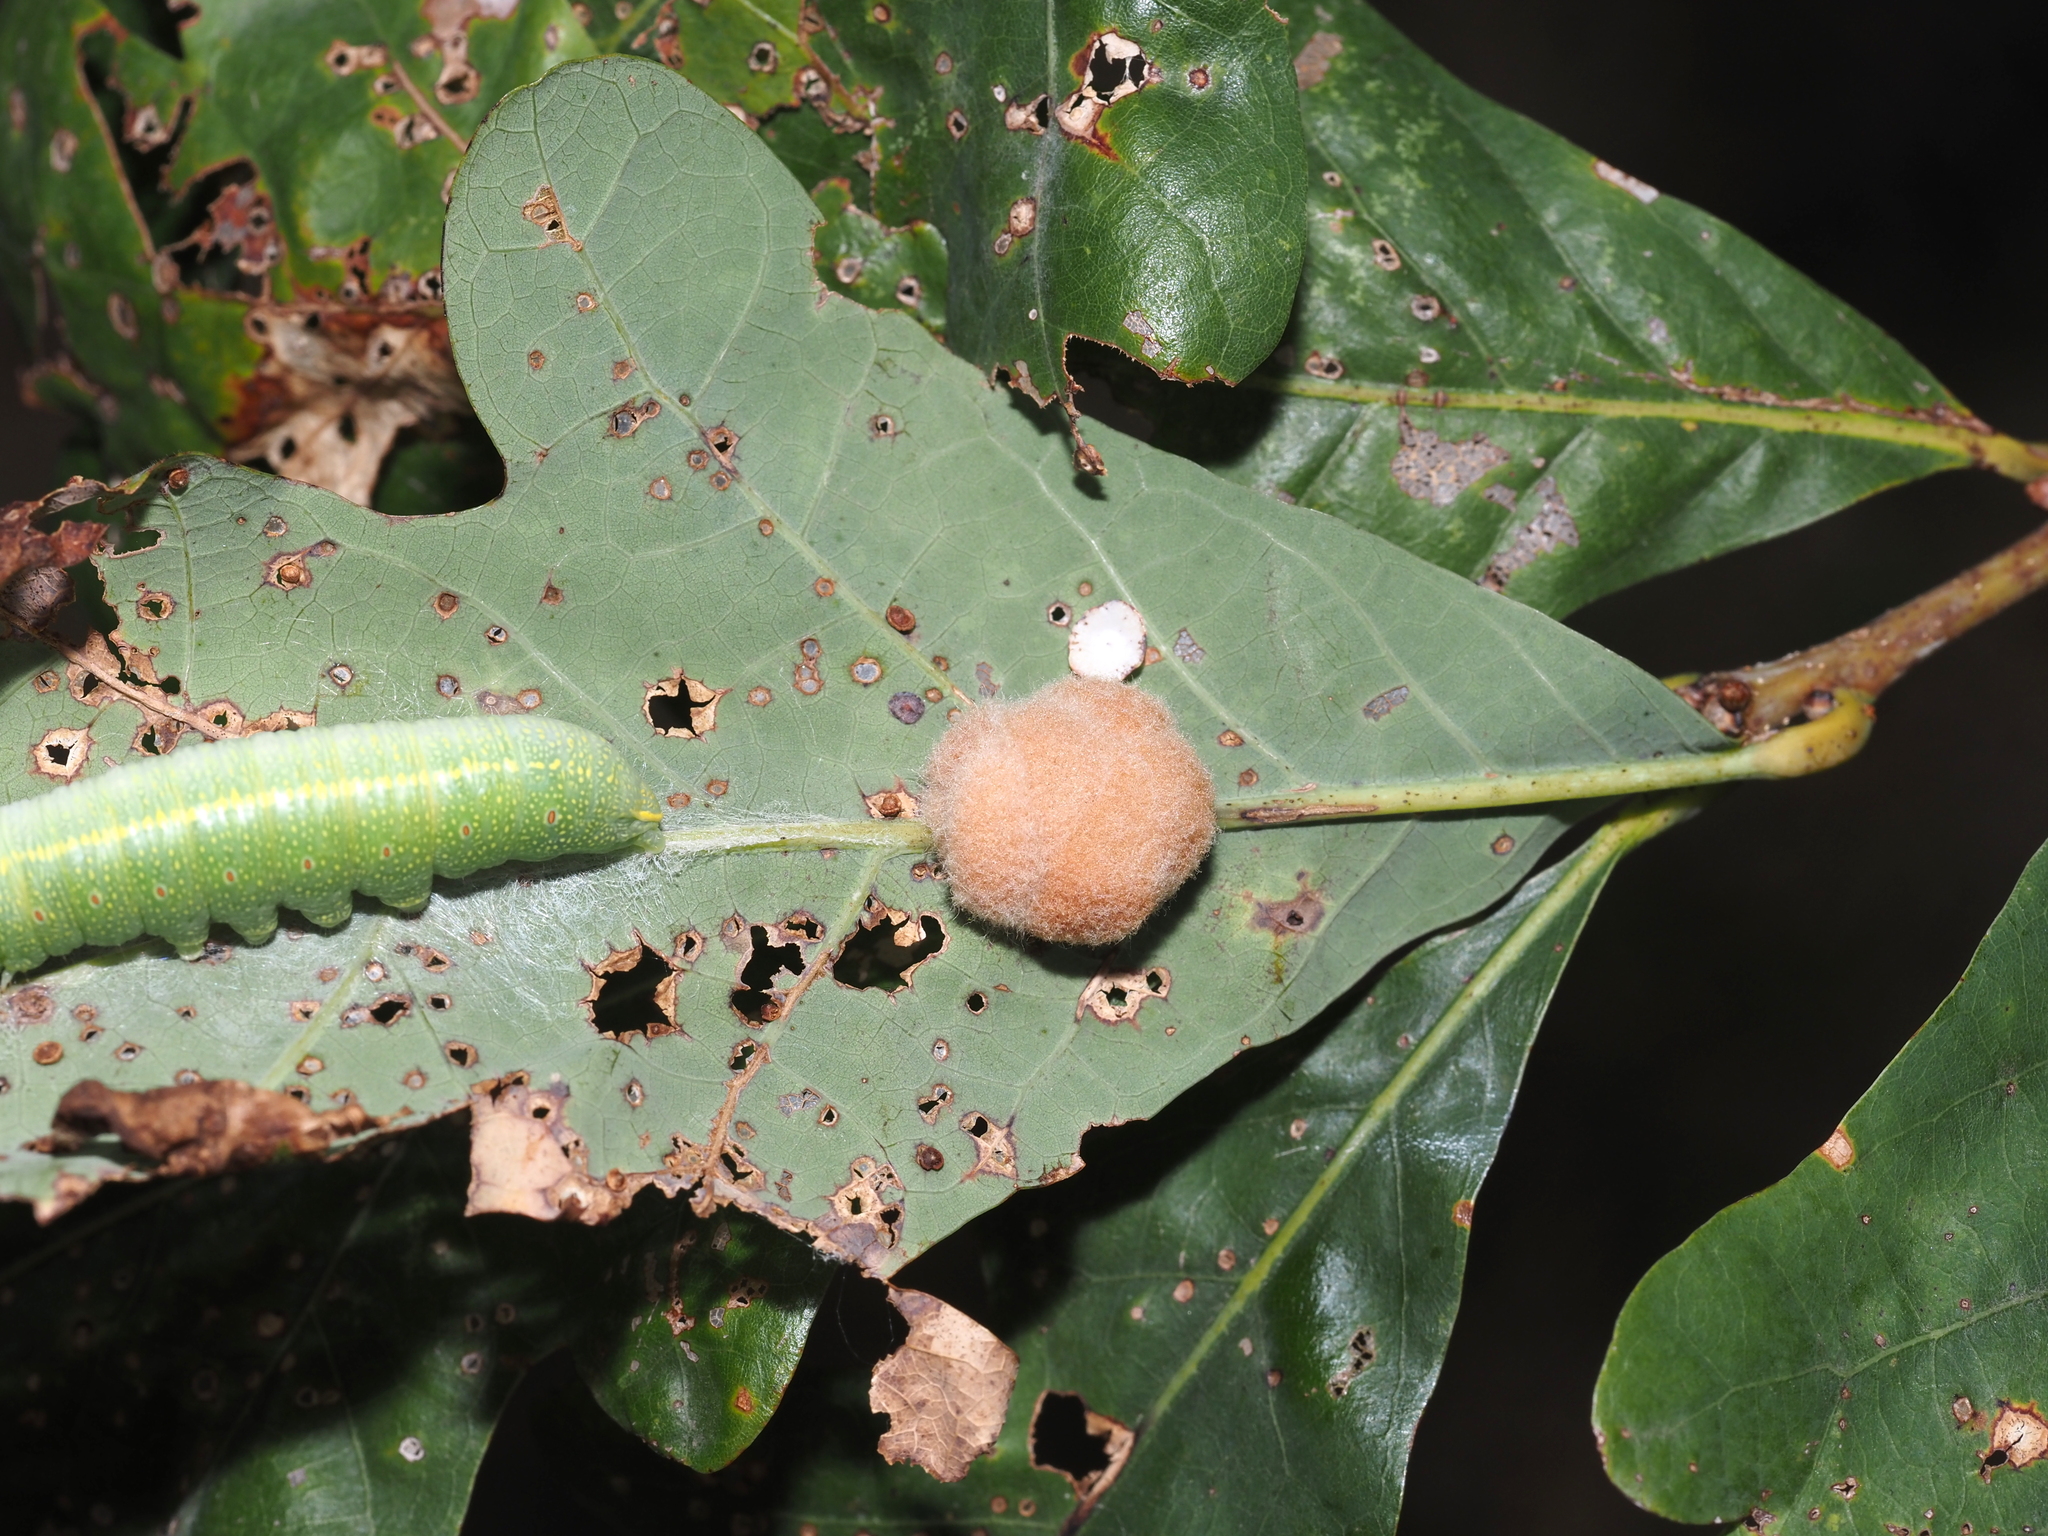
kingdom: Animalia
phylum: Arthropoda
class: Insecta
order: Hymenoptera
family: Cynipidae
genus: Andricus
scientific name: Andricus quercusflocci
